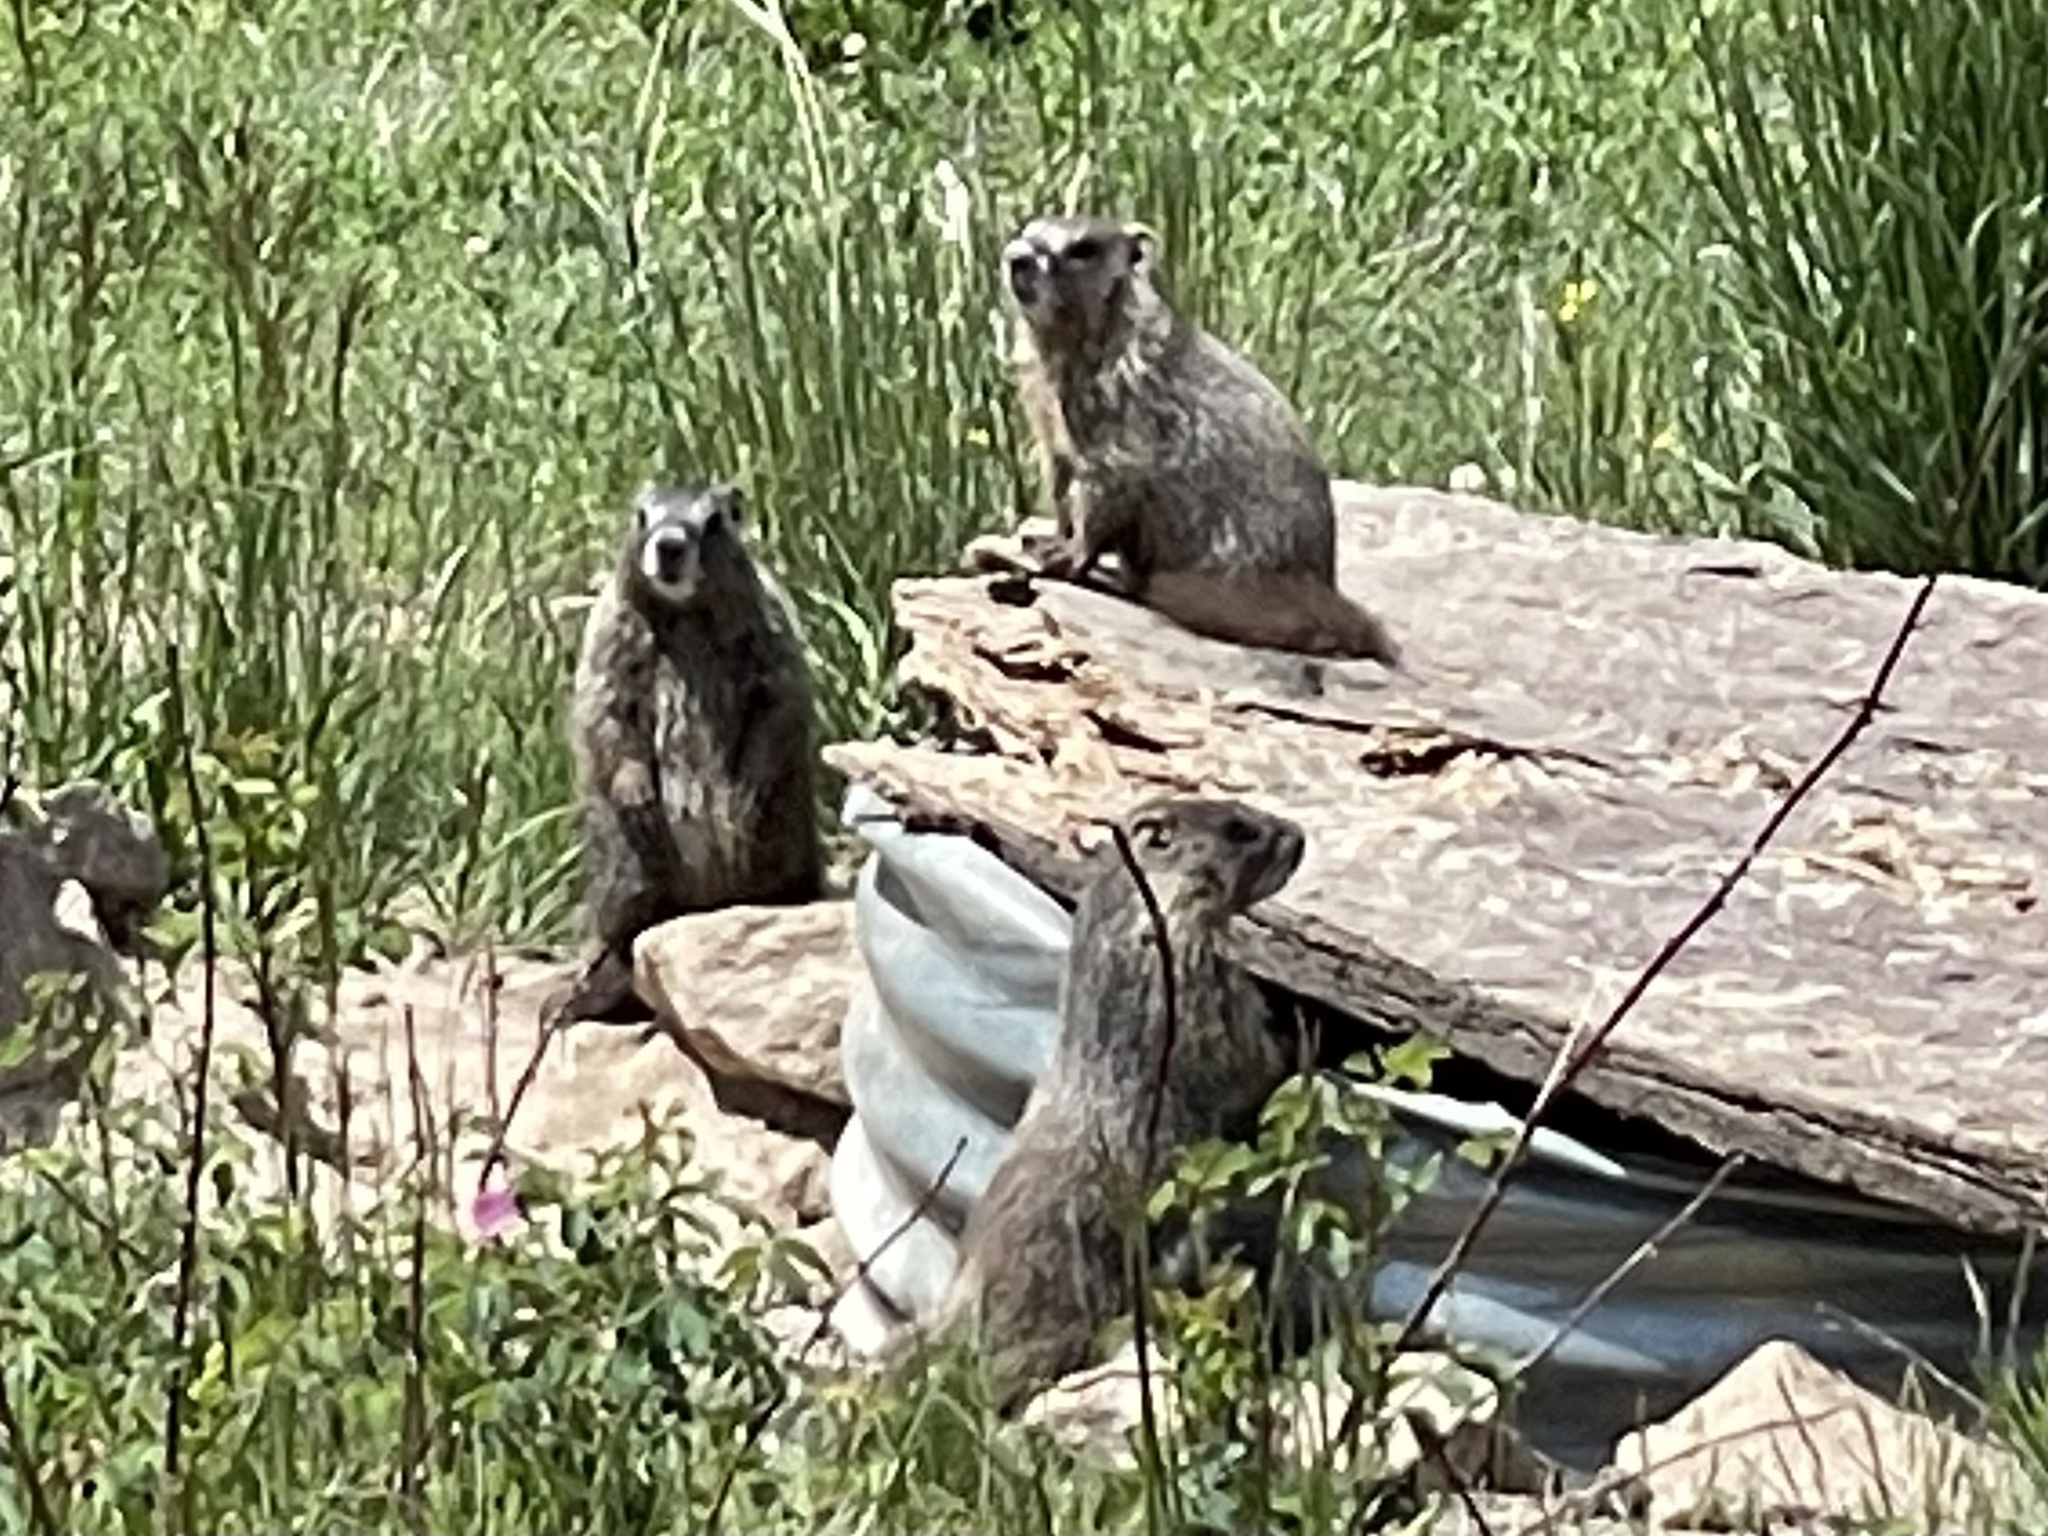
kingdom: Animalia
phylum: Chordata
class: Mammalia
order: Rodentia
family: Sciuridae
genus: Marmota
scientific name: Marmota flaviventris
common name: Yellow-bellied marmot
